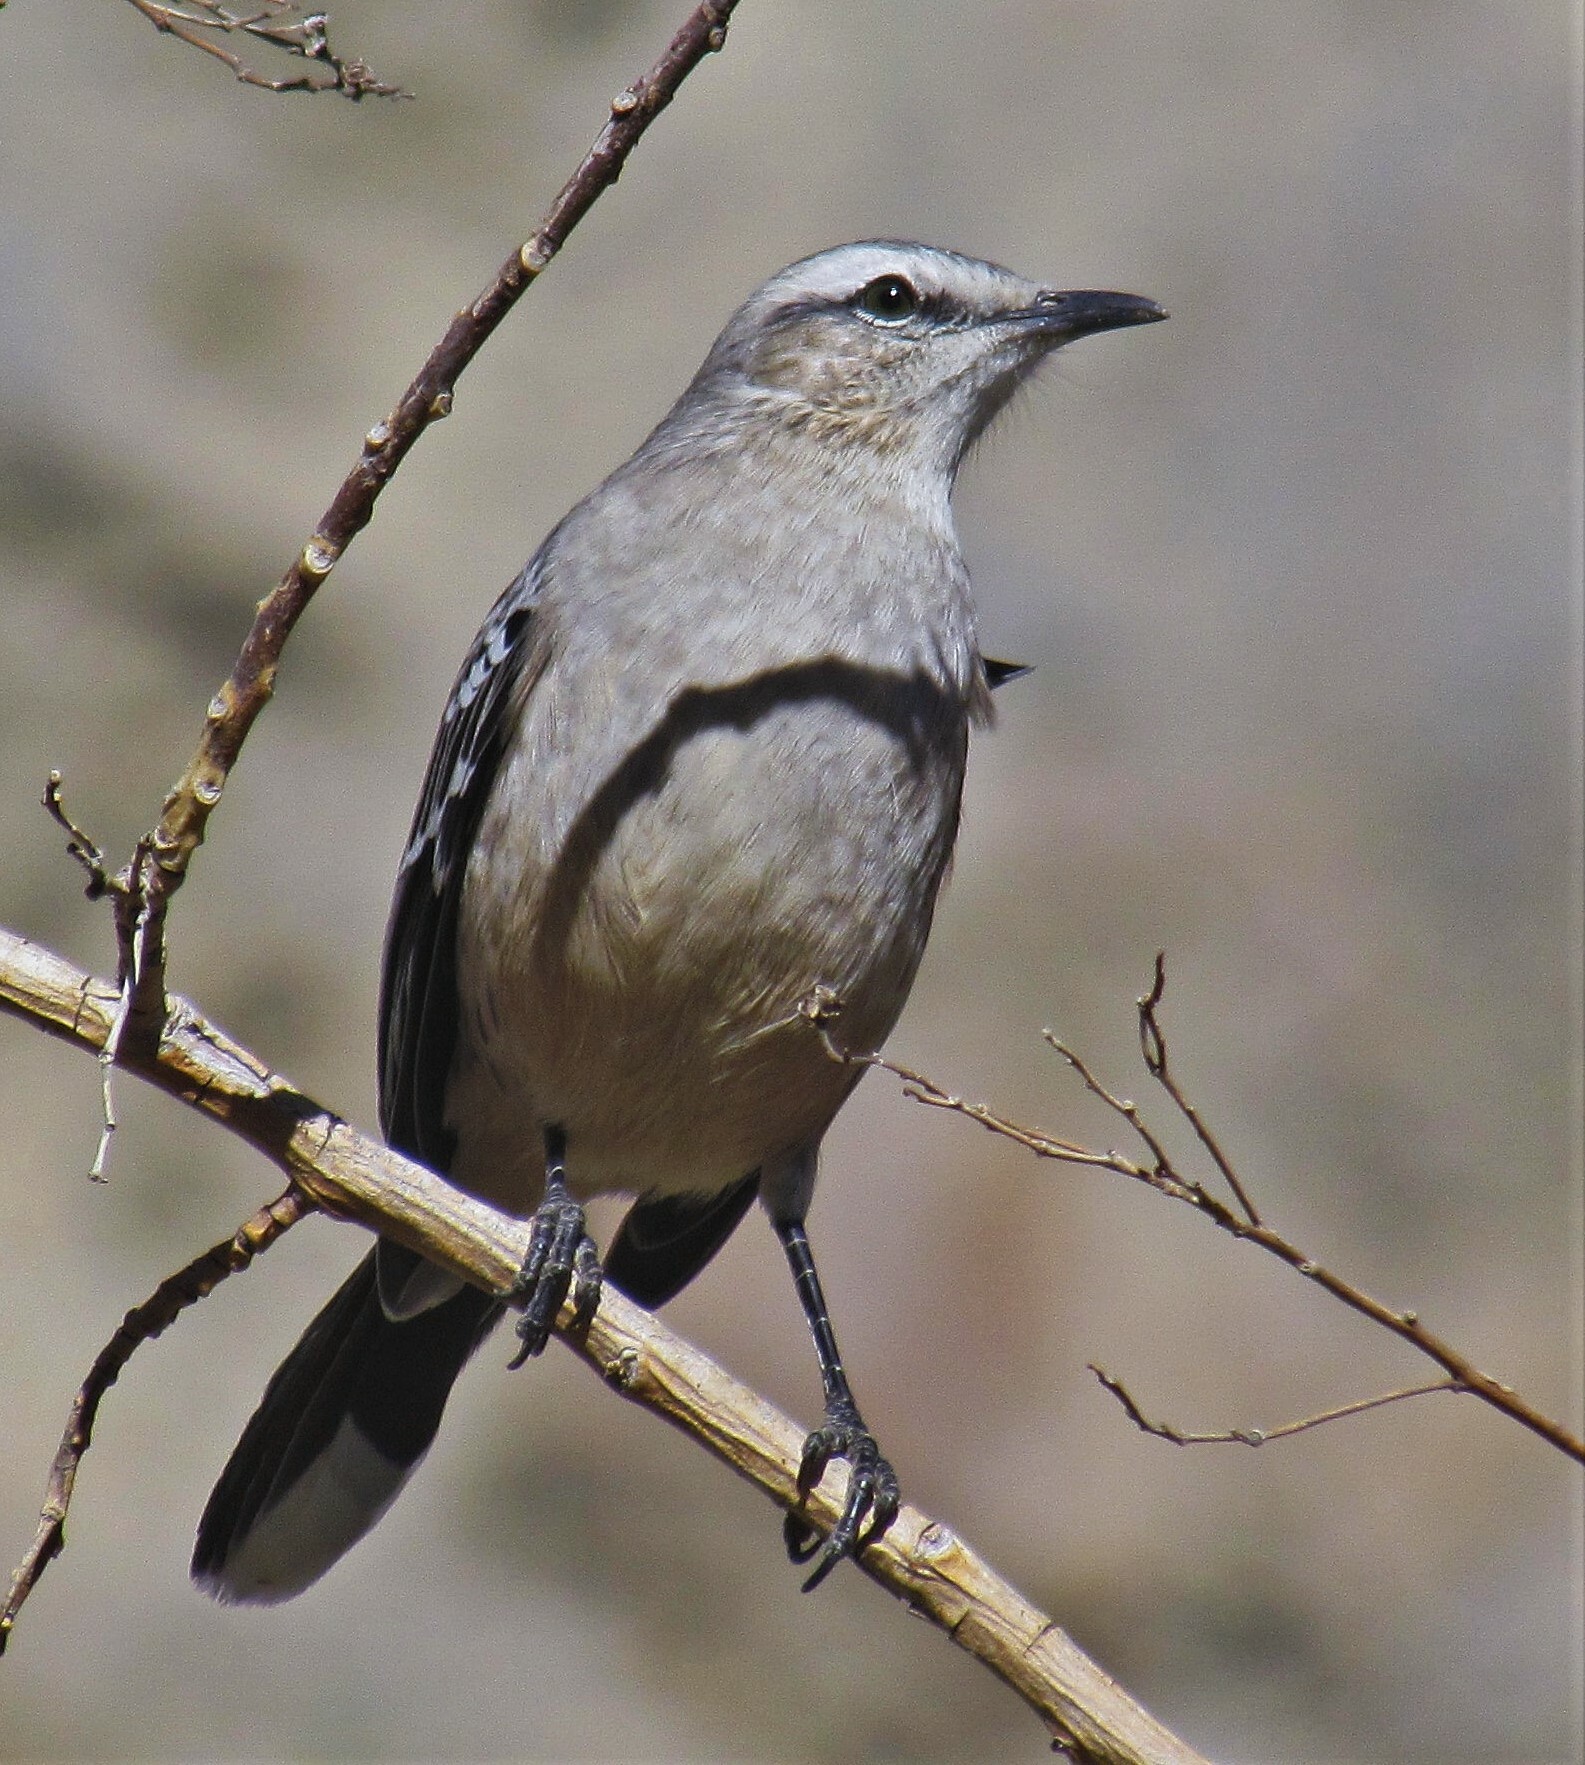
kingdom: Animalia
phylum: Chordata
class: Aves
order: Passeriformes
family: Mimidae
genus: Mimus
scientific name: Mimus patagonicus
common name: Patagonian mockingbird
